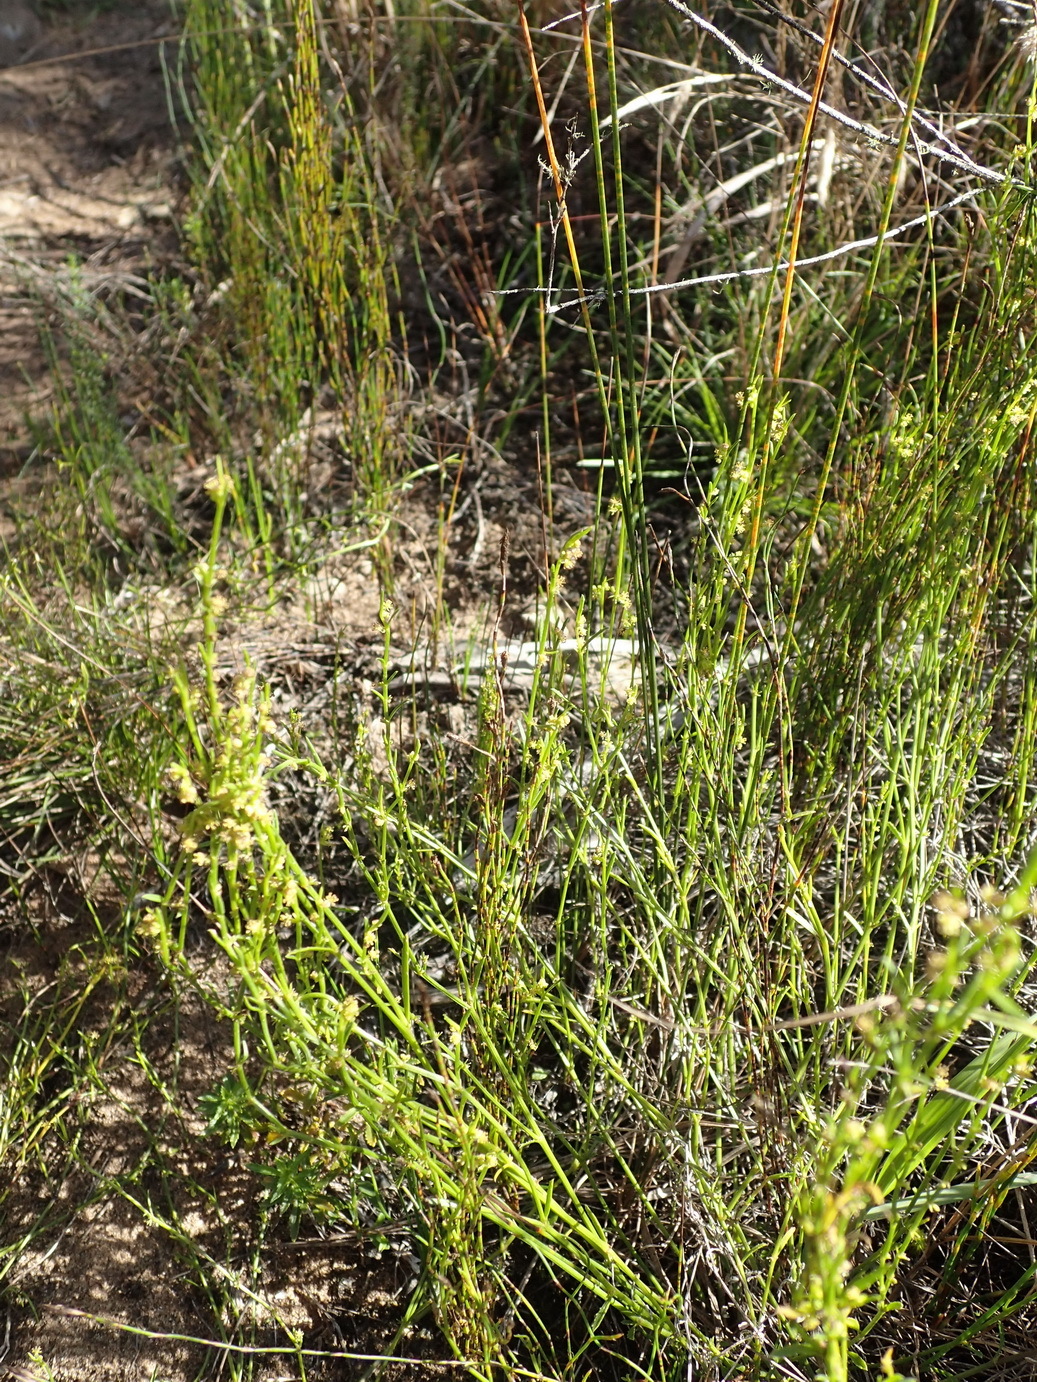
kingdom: Plantae
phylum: Tracheophyta
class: Magnoliopsida
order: Malpighiales
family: Euphorbiaceae
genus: Adenocline
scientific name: Adenocline pauciflora
